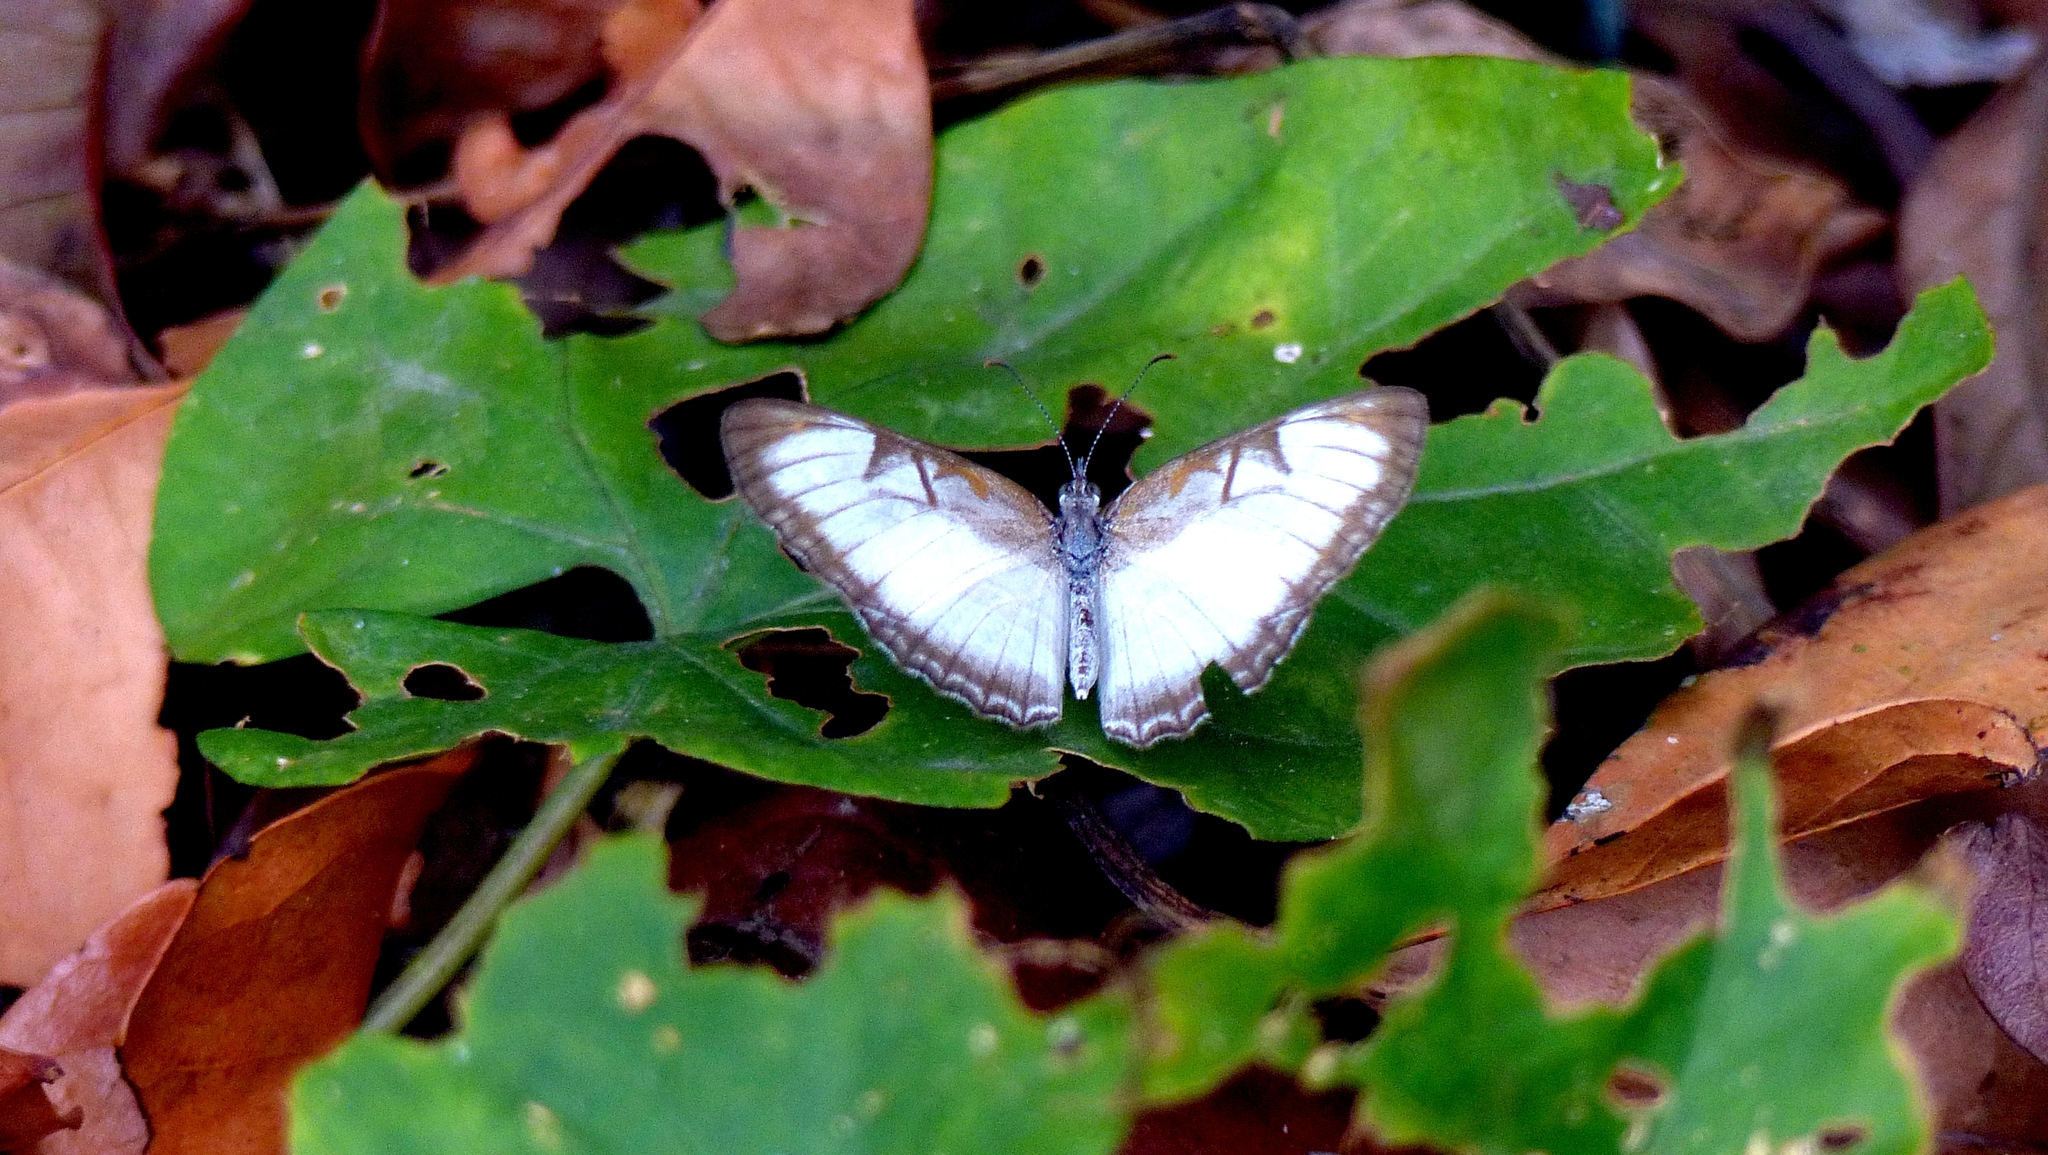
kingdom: Animalia
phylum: Arthropoda
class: Insecta
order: Lepidoptera
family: Nymphalidae
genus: Mestra
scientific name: Mestra hersilia
